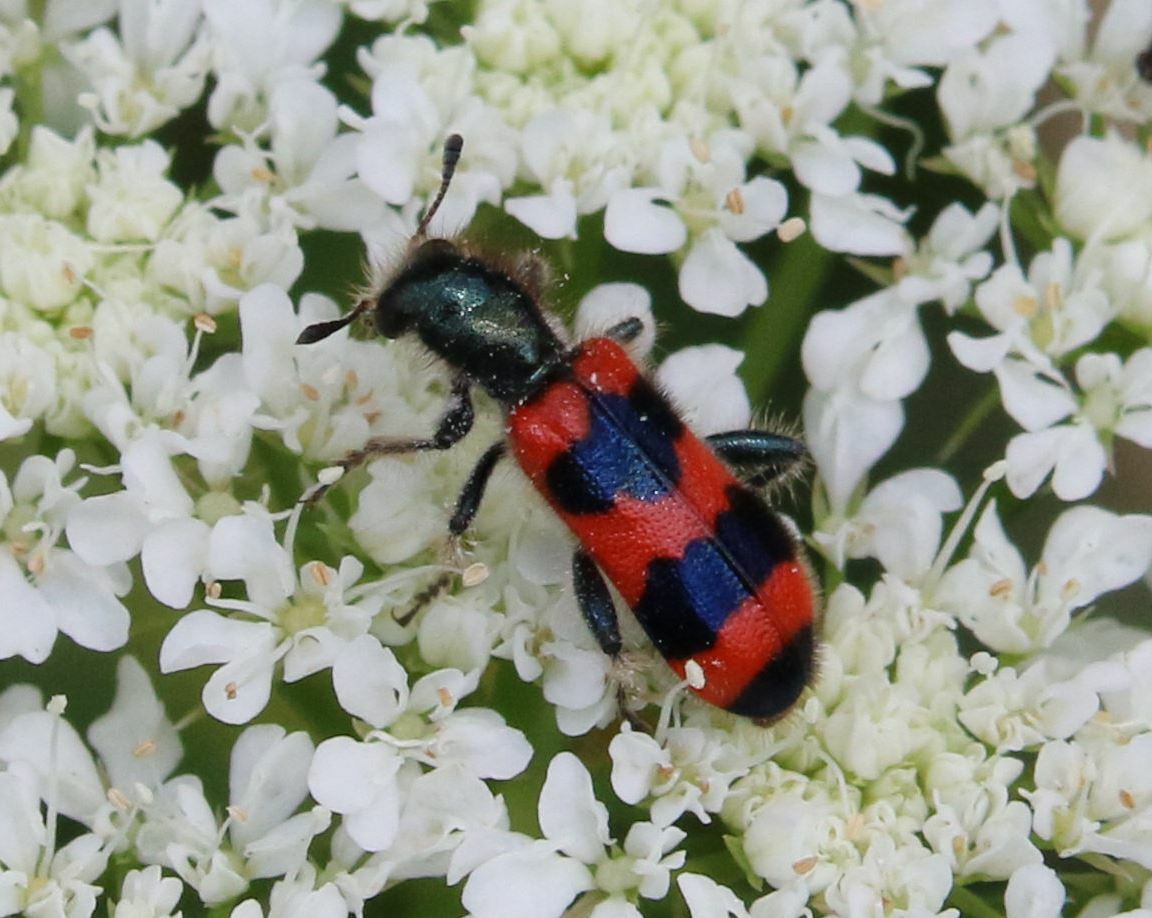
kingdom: Animalia
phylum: Arthropoda
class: Insecta
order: Coleoptera
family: Cleridae
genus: Trichodes
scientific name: Trichodes apiarius
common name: Bee-eating beetle
